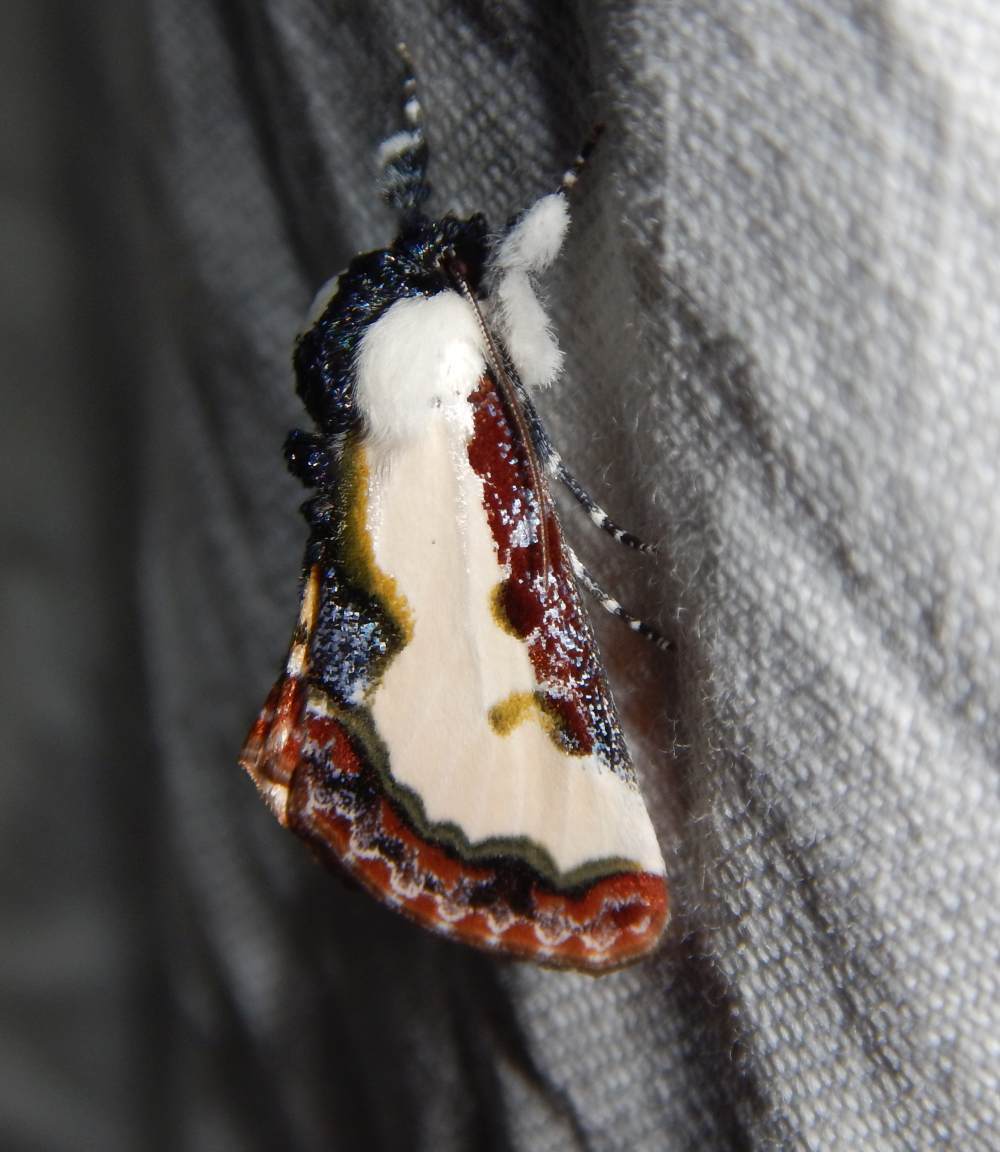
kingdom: Animalia
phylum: Arthropoda
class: Insecta
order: Lepidoptera
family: Noctuidae
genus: Eudryas
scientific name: Eudryas unio
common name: Pearly wood-nymph
